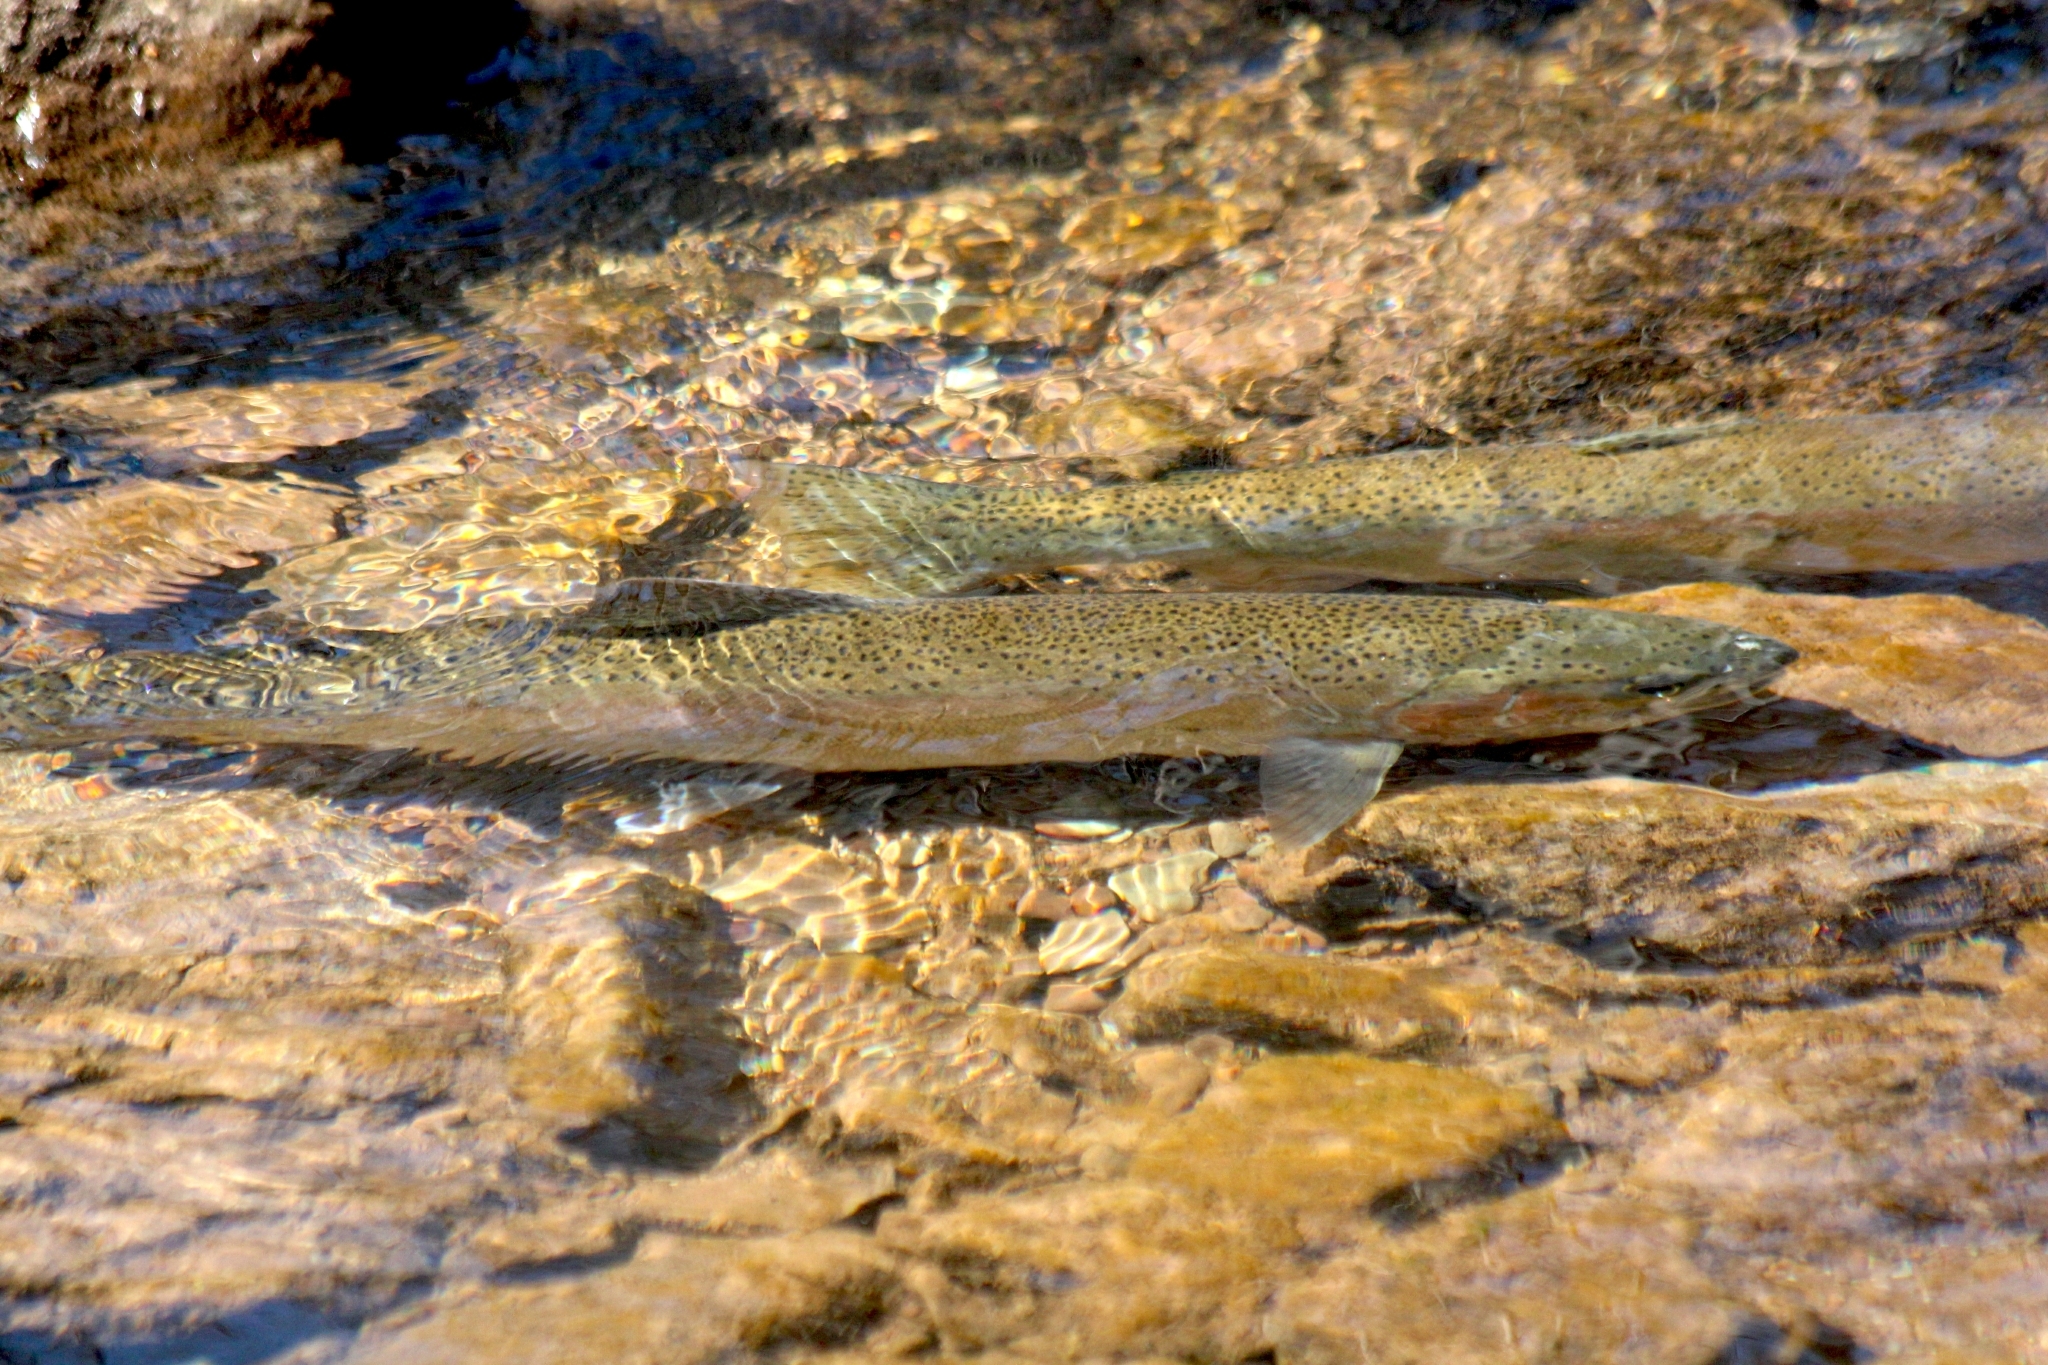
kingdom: Animalia
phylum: Chordata
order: Salmoniformes
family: Salmonidae
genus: Oncorhynchus
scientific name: Oncorhynchus mykiss
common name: Rainbow trout
